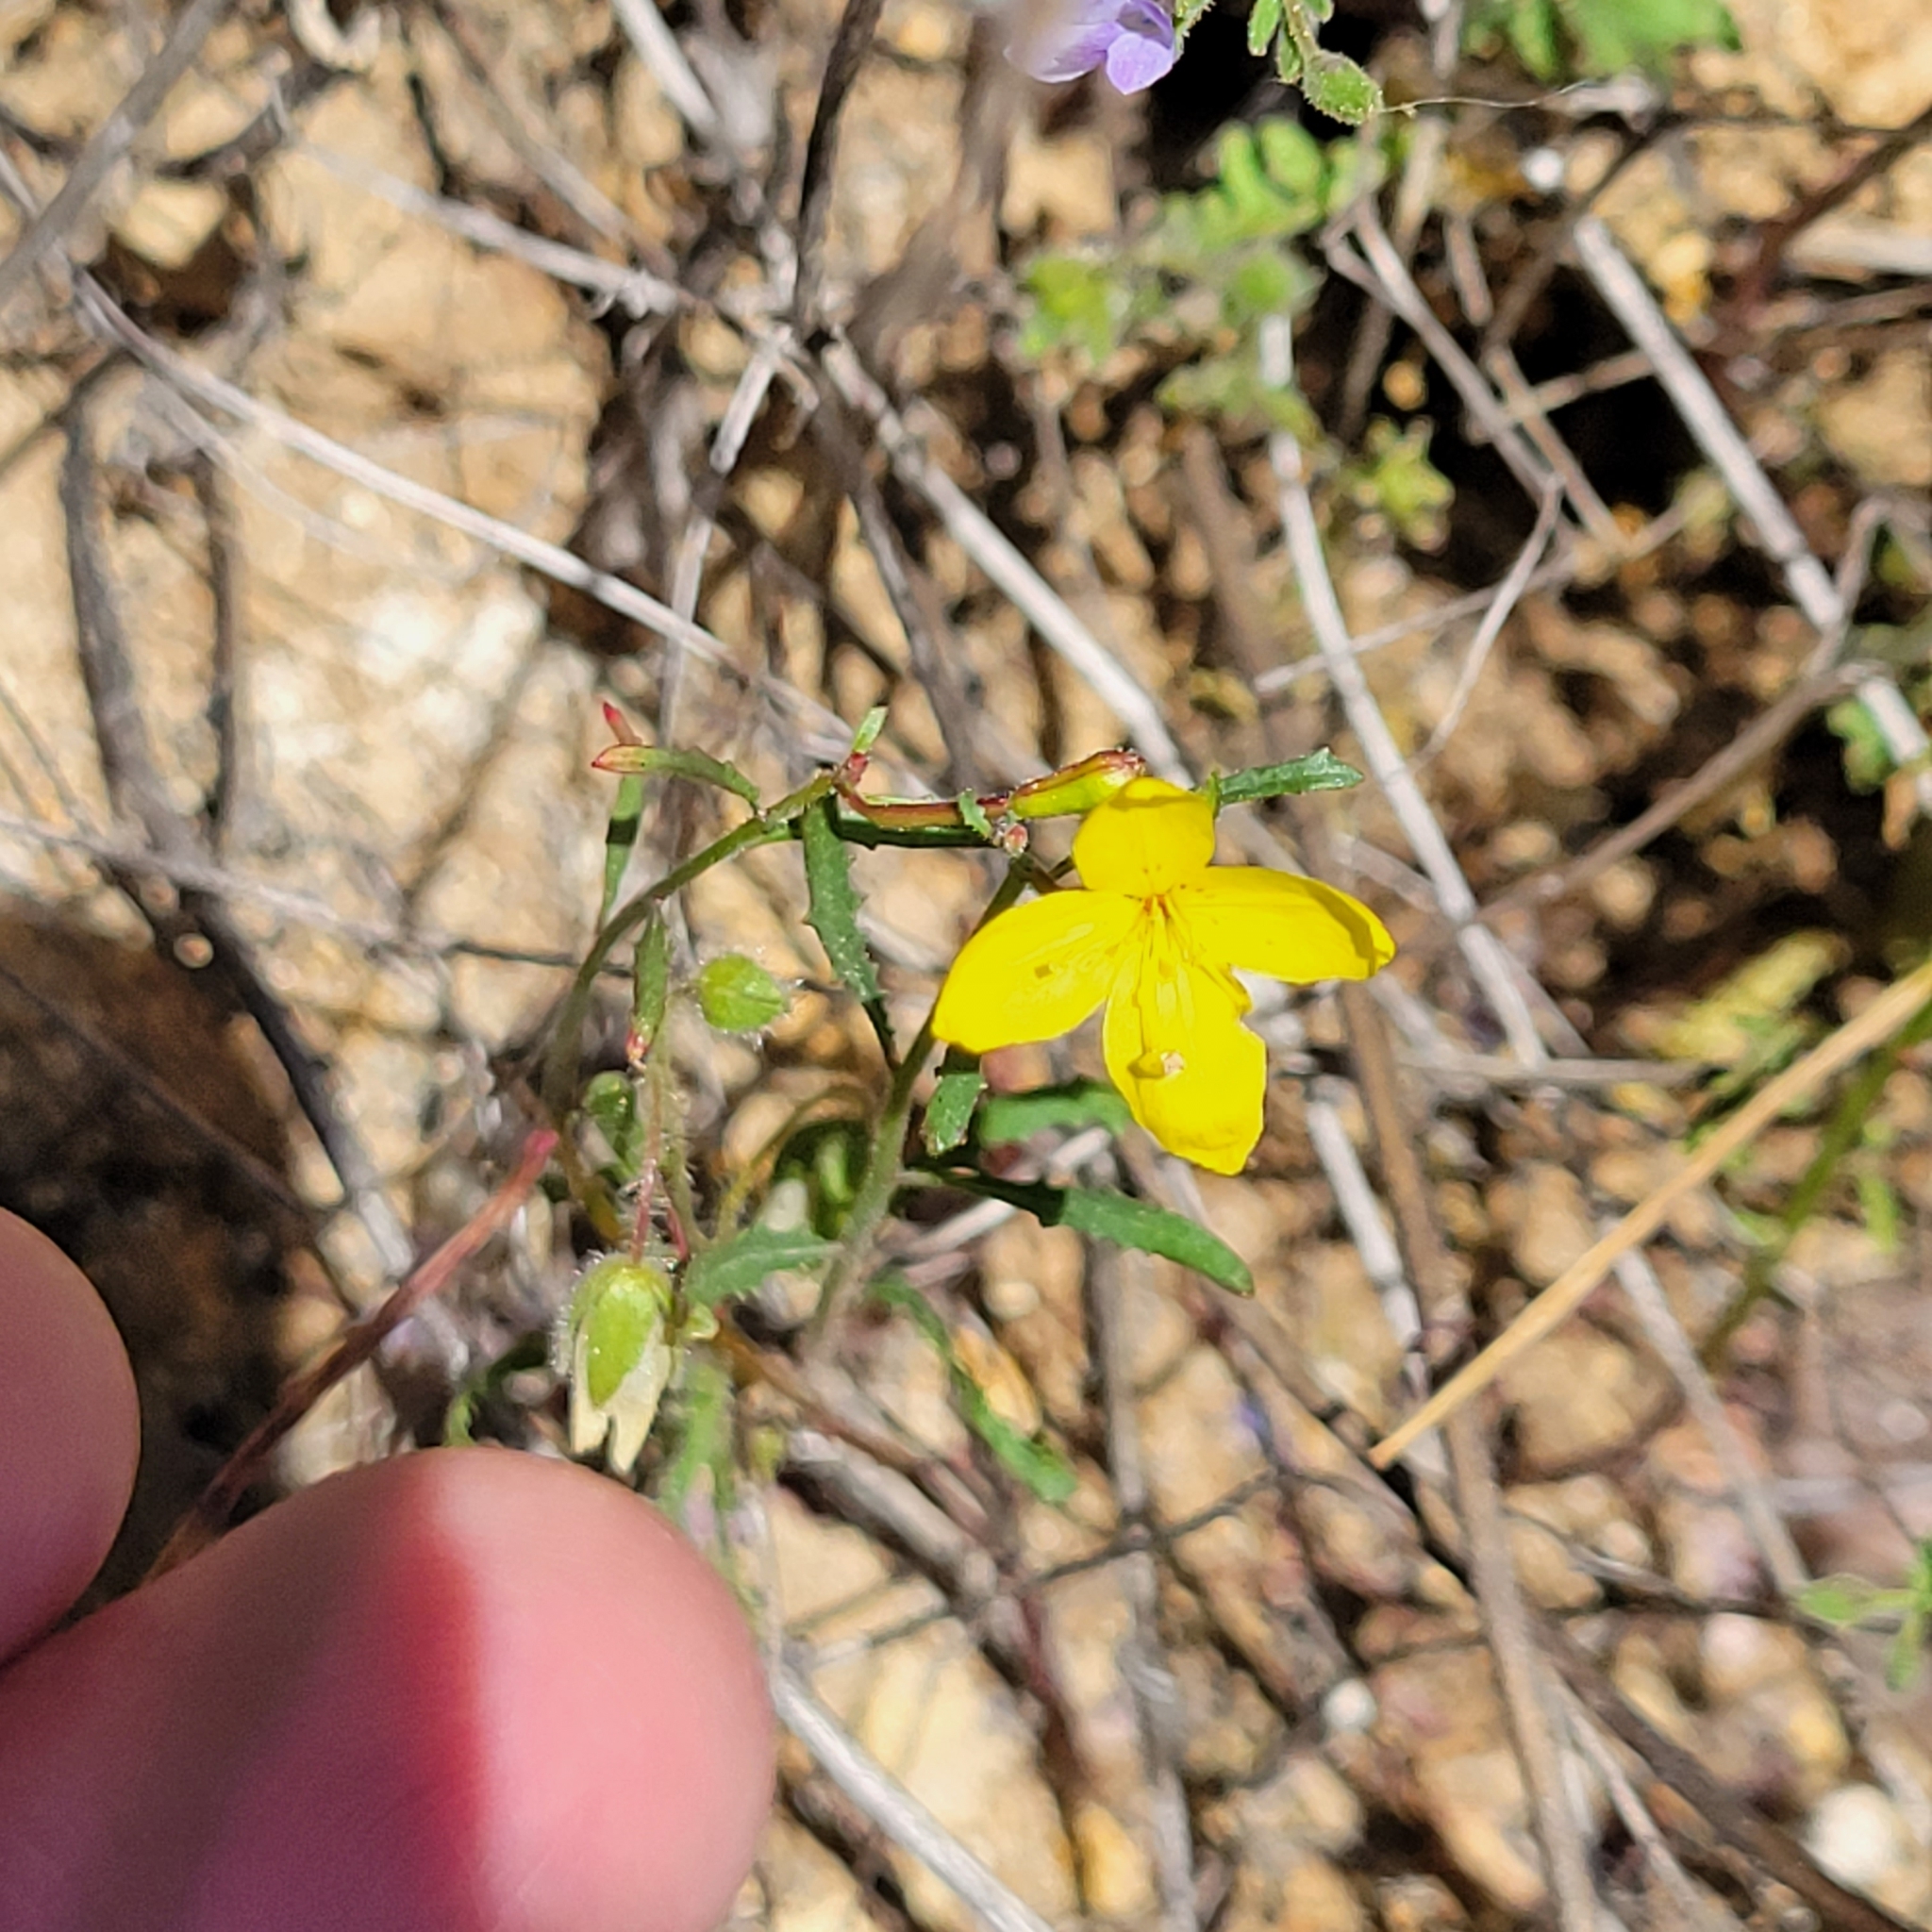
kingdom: Plantae
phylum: Tracheophyta
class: Magnoliopsida
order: Myrtales
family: Onagraceae
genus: Eulobus
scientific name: Eulobus californicus
